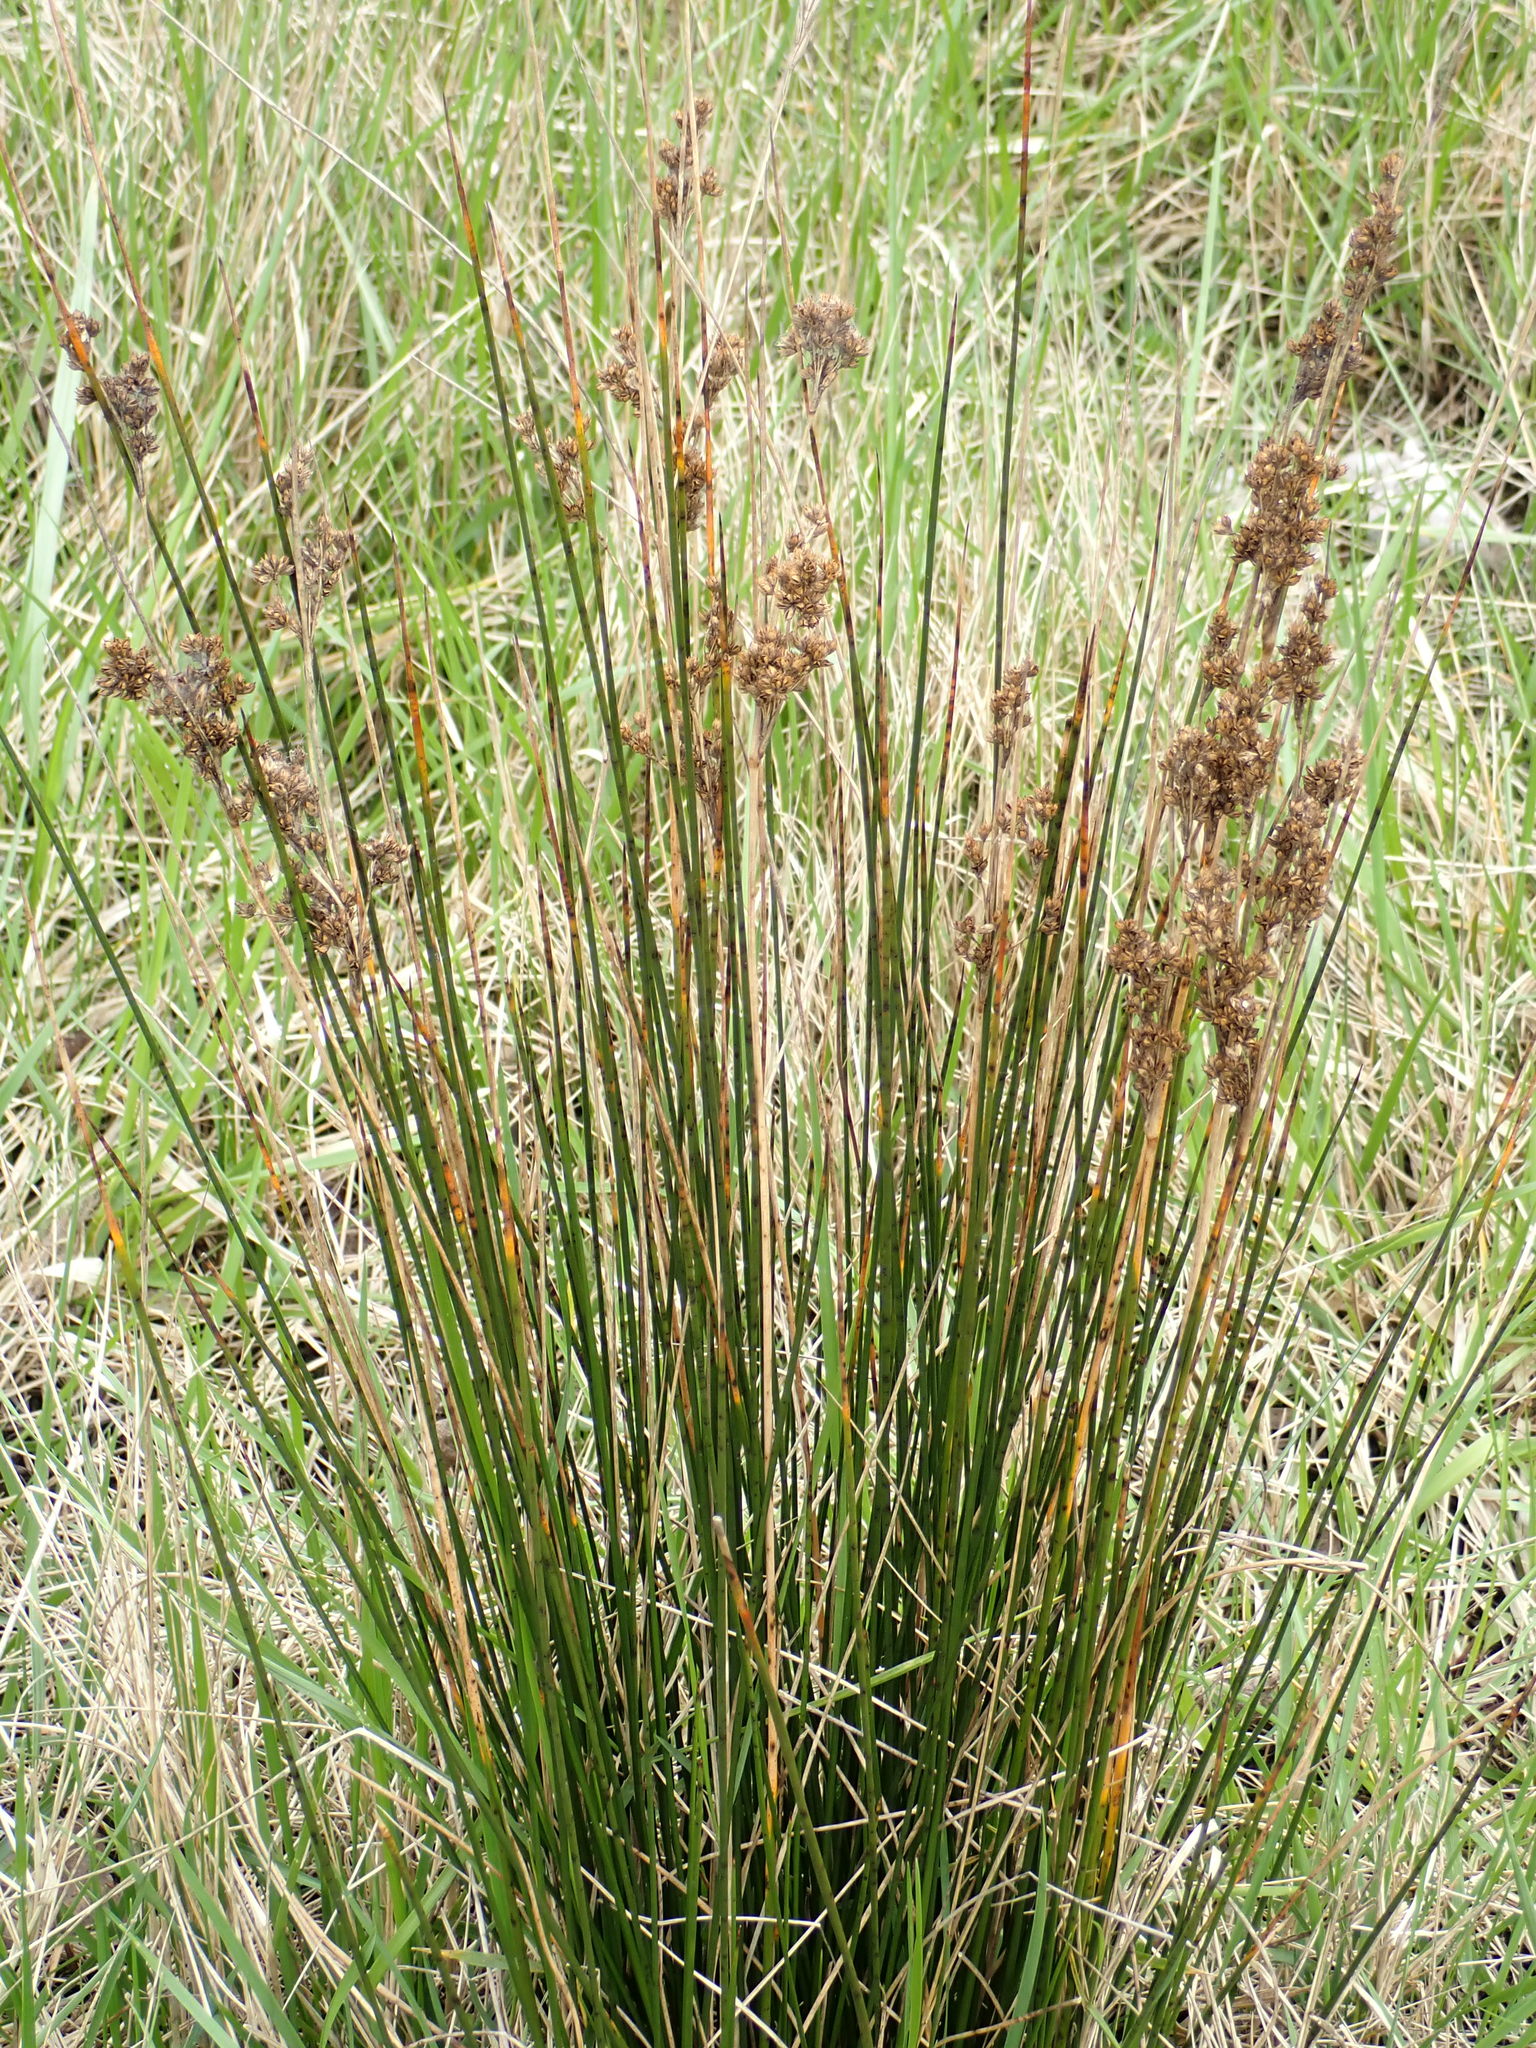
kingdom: Plantae
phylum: Tracheophyta
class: Liliopsida
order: Poales
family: Juncaceae
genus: Juncus
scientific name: Juncus maritimus
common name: Sea rush
